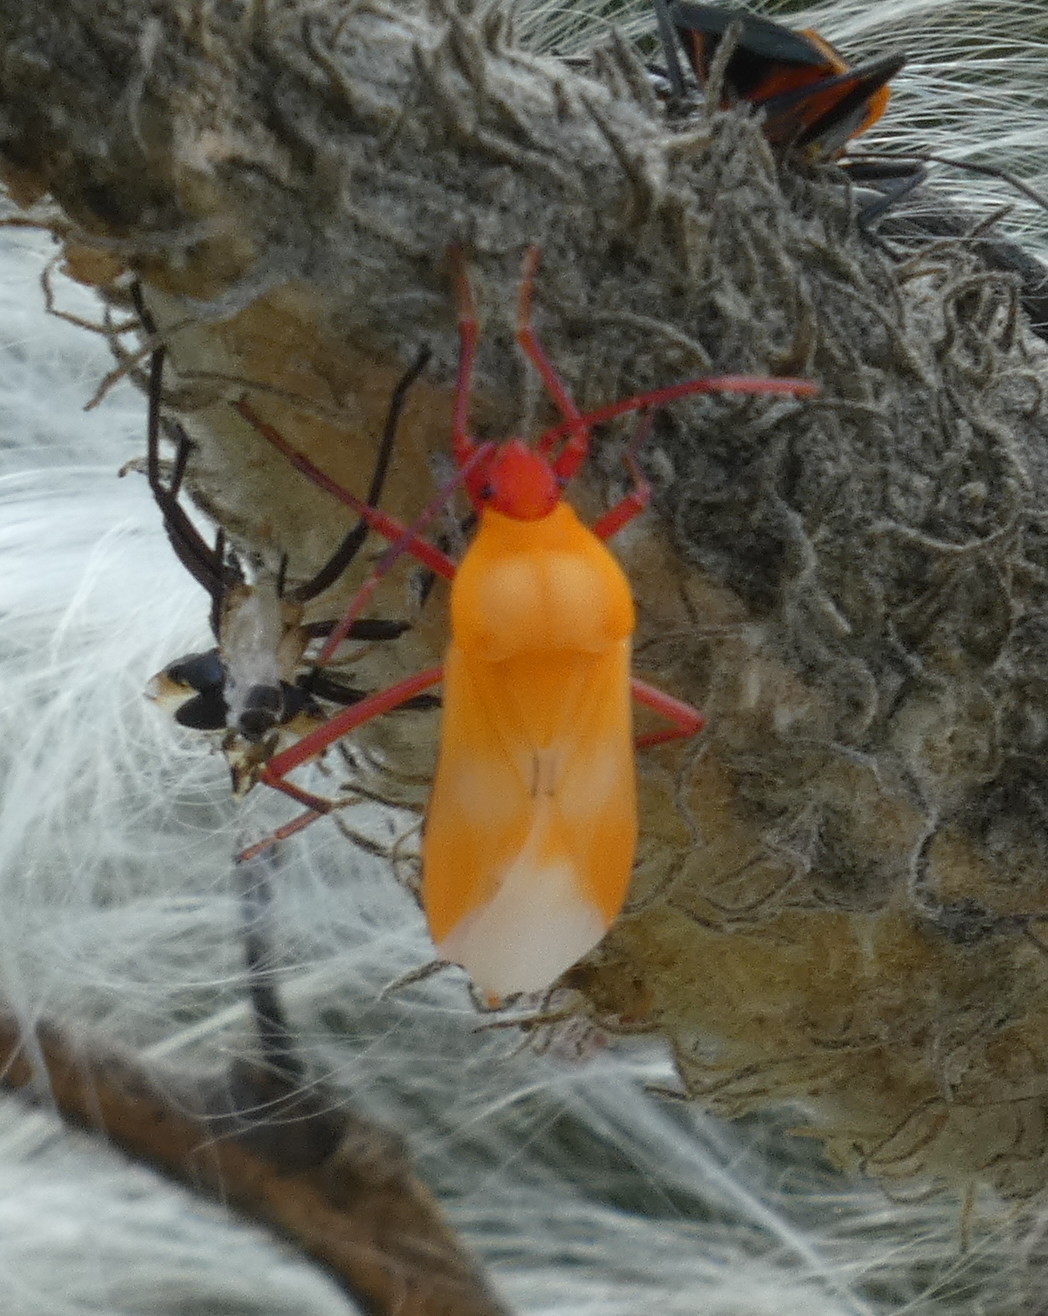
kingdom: Animalia
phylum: Arthropoda
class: Insecta
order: Hemiptera
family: Lygaeidae
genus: Oncopeltus
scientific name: Oncopeltus fasciatus
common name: Large milkweed bug
